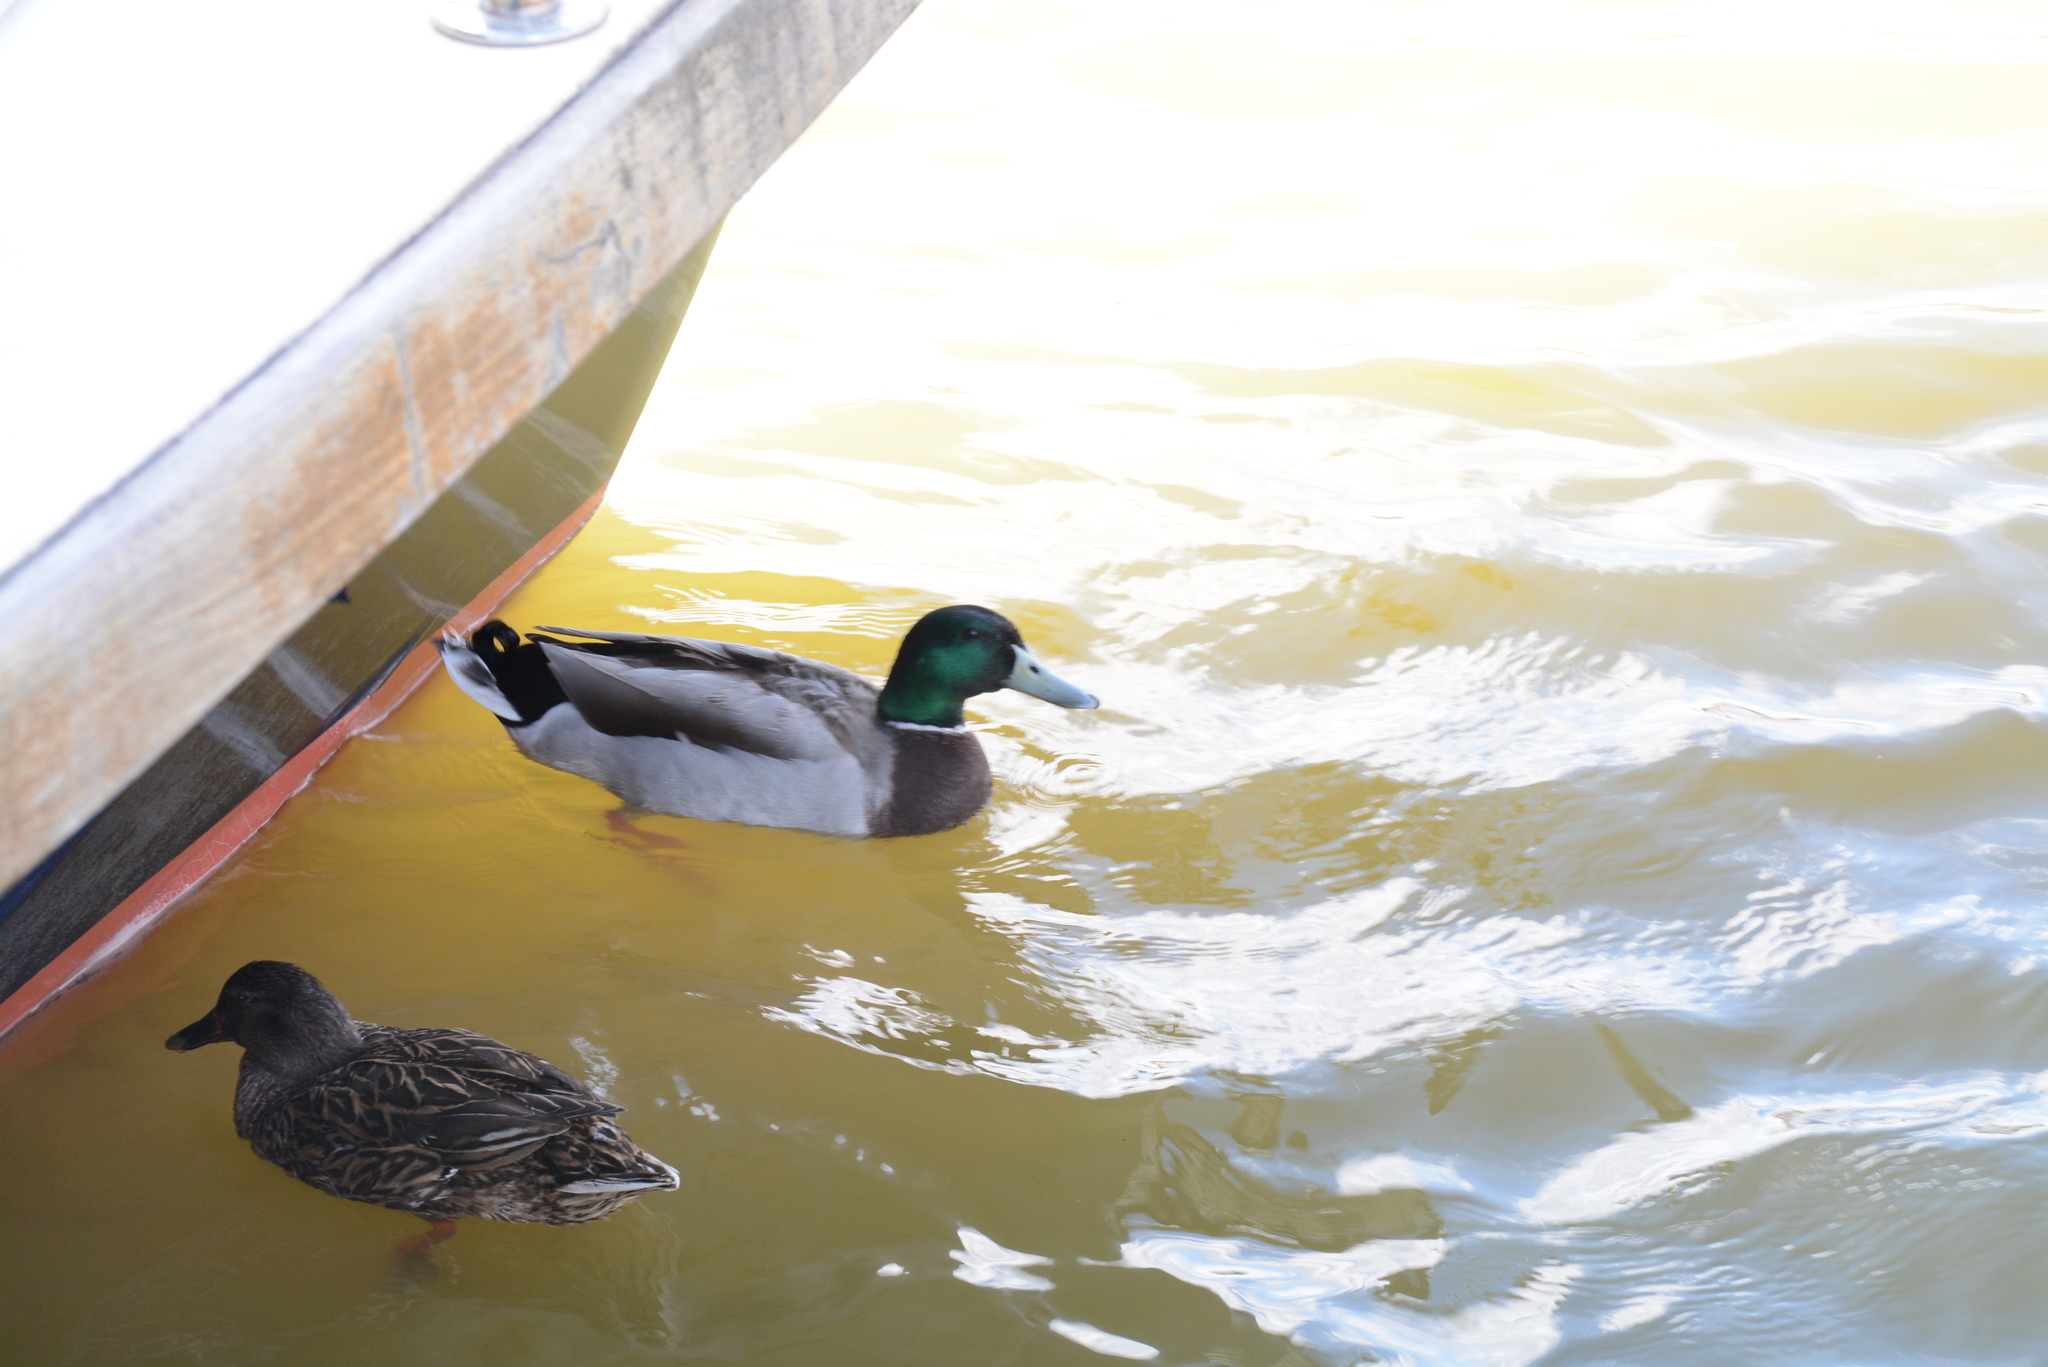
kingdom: Animalia
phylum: Chordata
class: Aves
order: Anseriformes
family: Anatidae
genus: Anas
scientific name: Anas platyrhynchos
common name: Mallard
